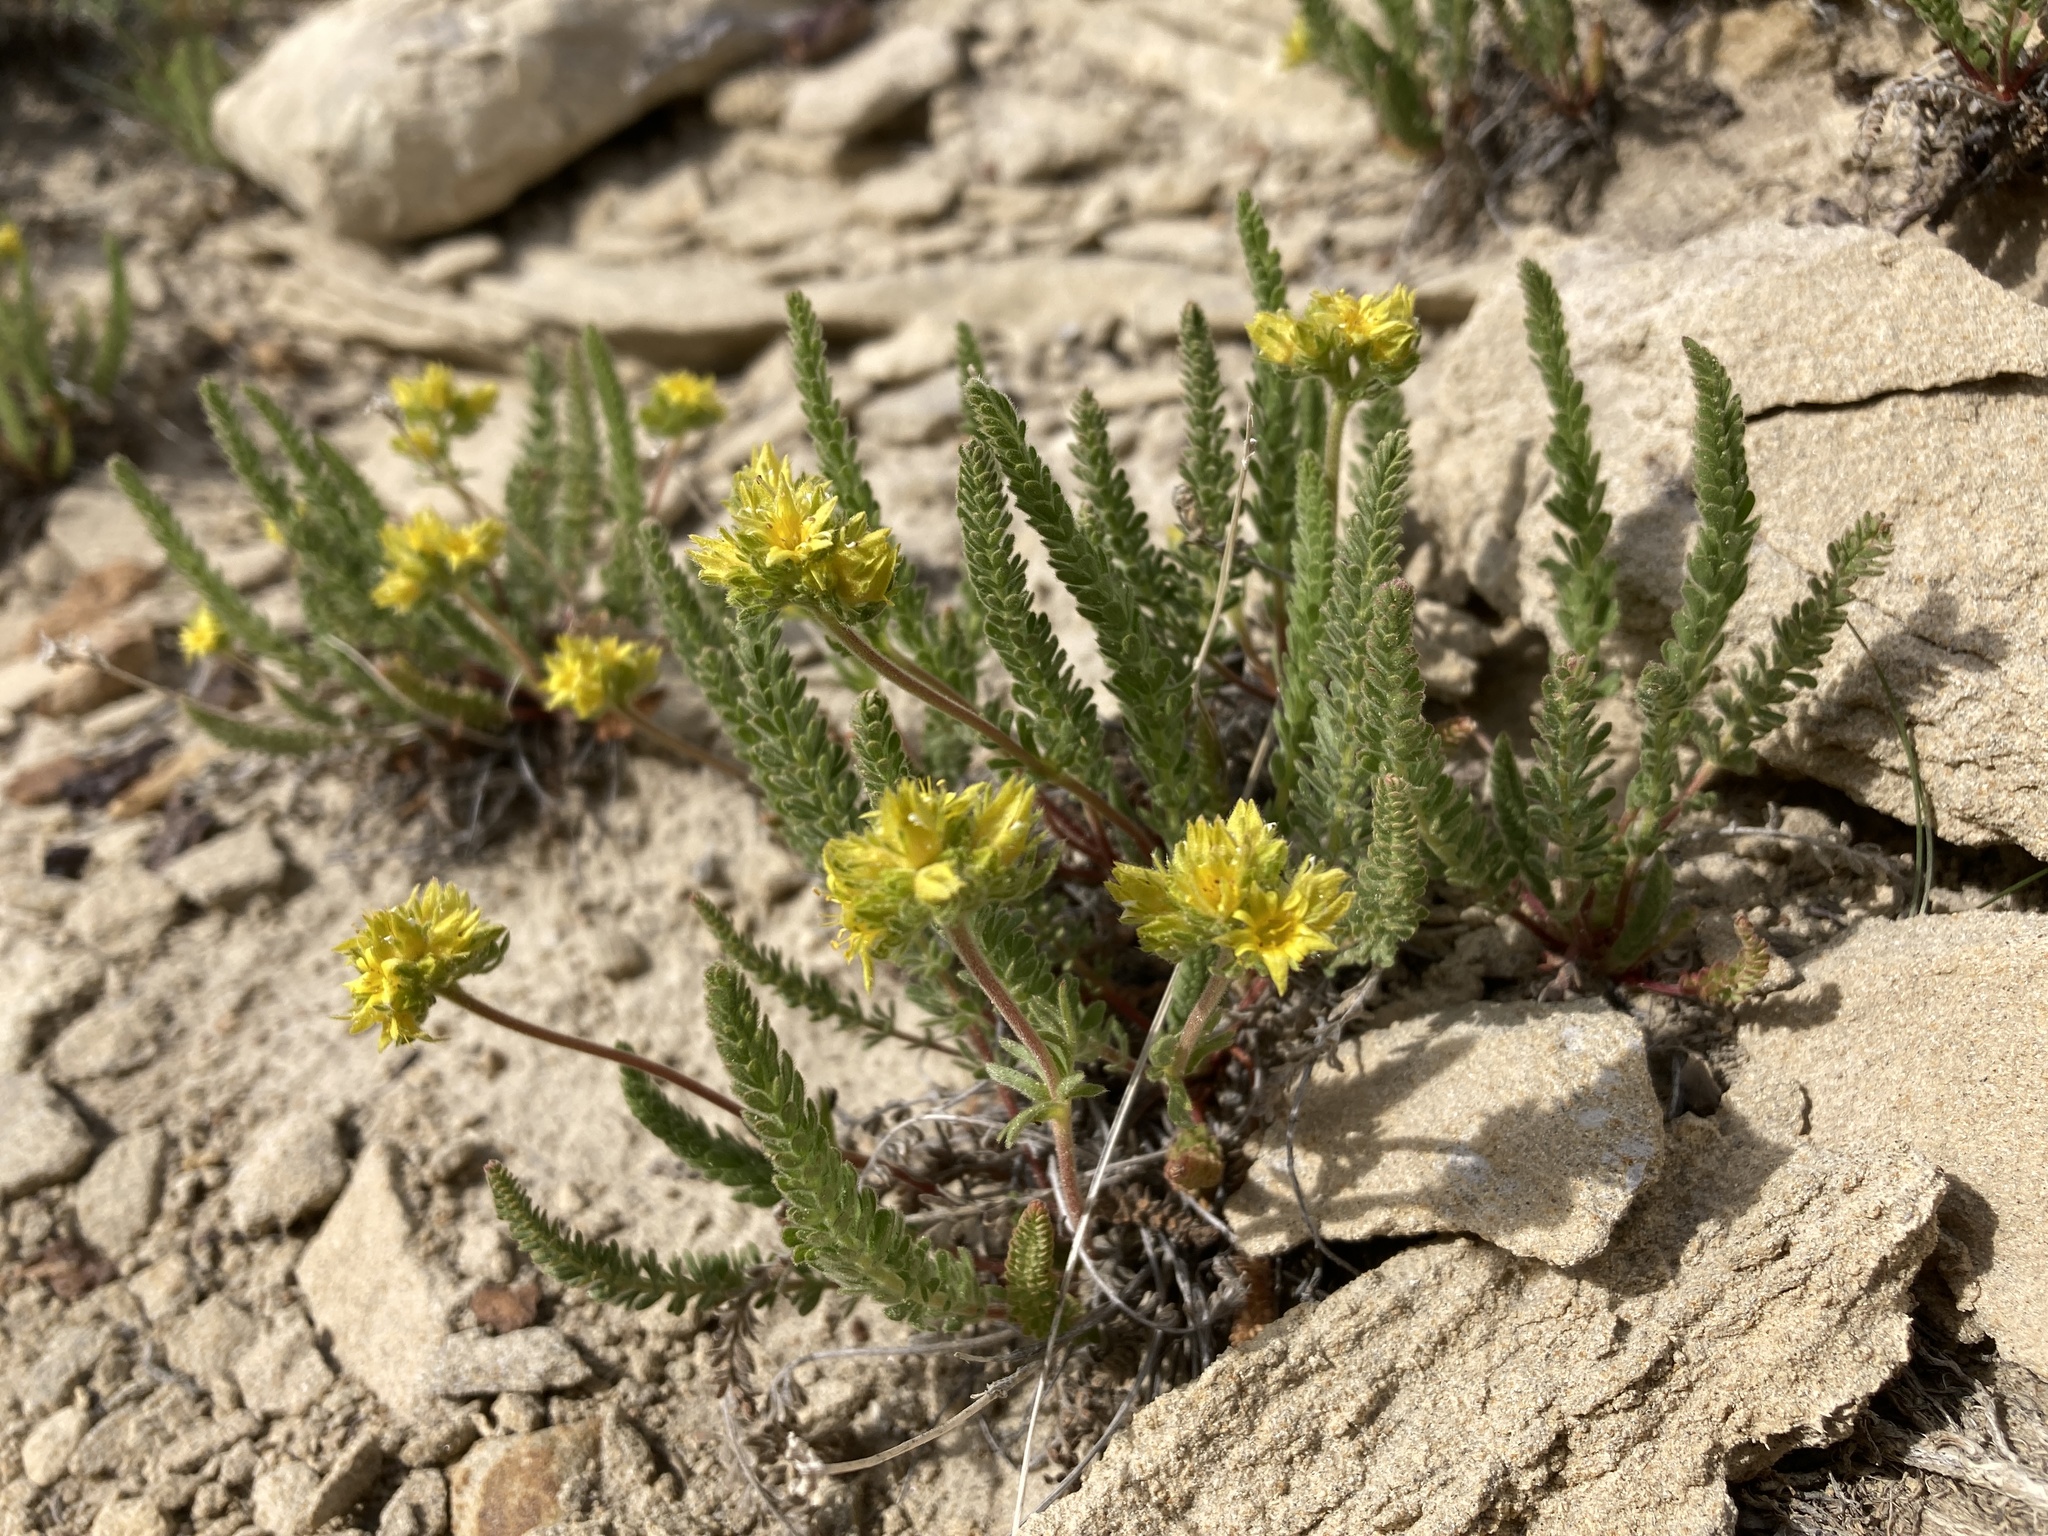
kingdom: Plantae
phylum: Tracheophyta
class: Magnoliopsida
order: Rosales
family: Rosaceae
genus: Potentilla
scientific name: Potentilla gordonii
